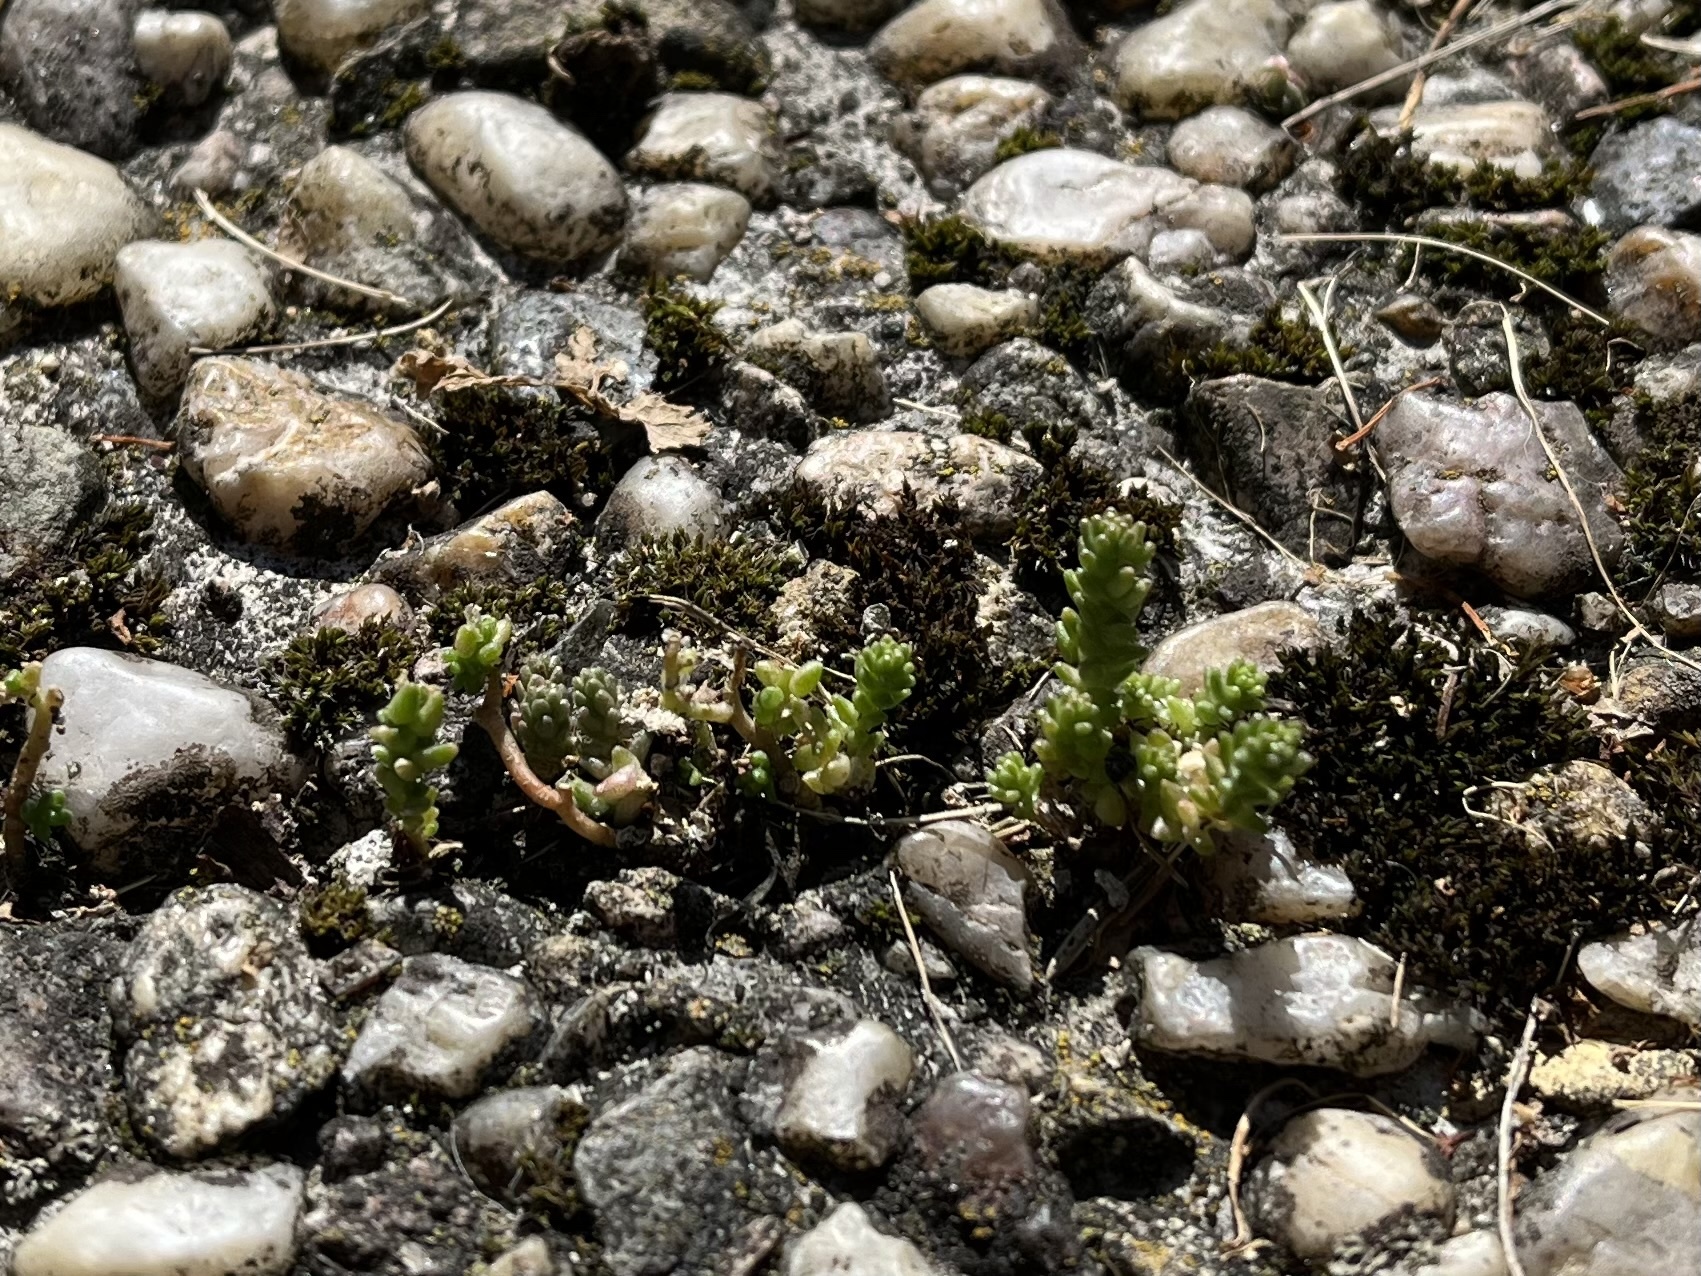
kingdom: Plantae
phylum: Tracheophyta
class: Magnoliopsida
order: Saxifragales
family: Crassulaceae
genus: Sedum
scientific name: Sedum acre
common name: Biting stonecrop
